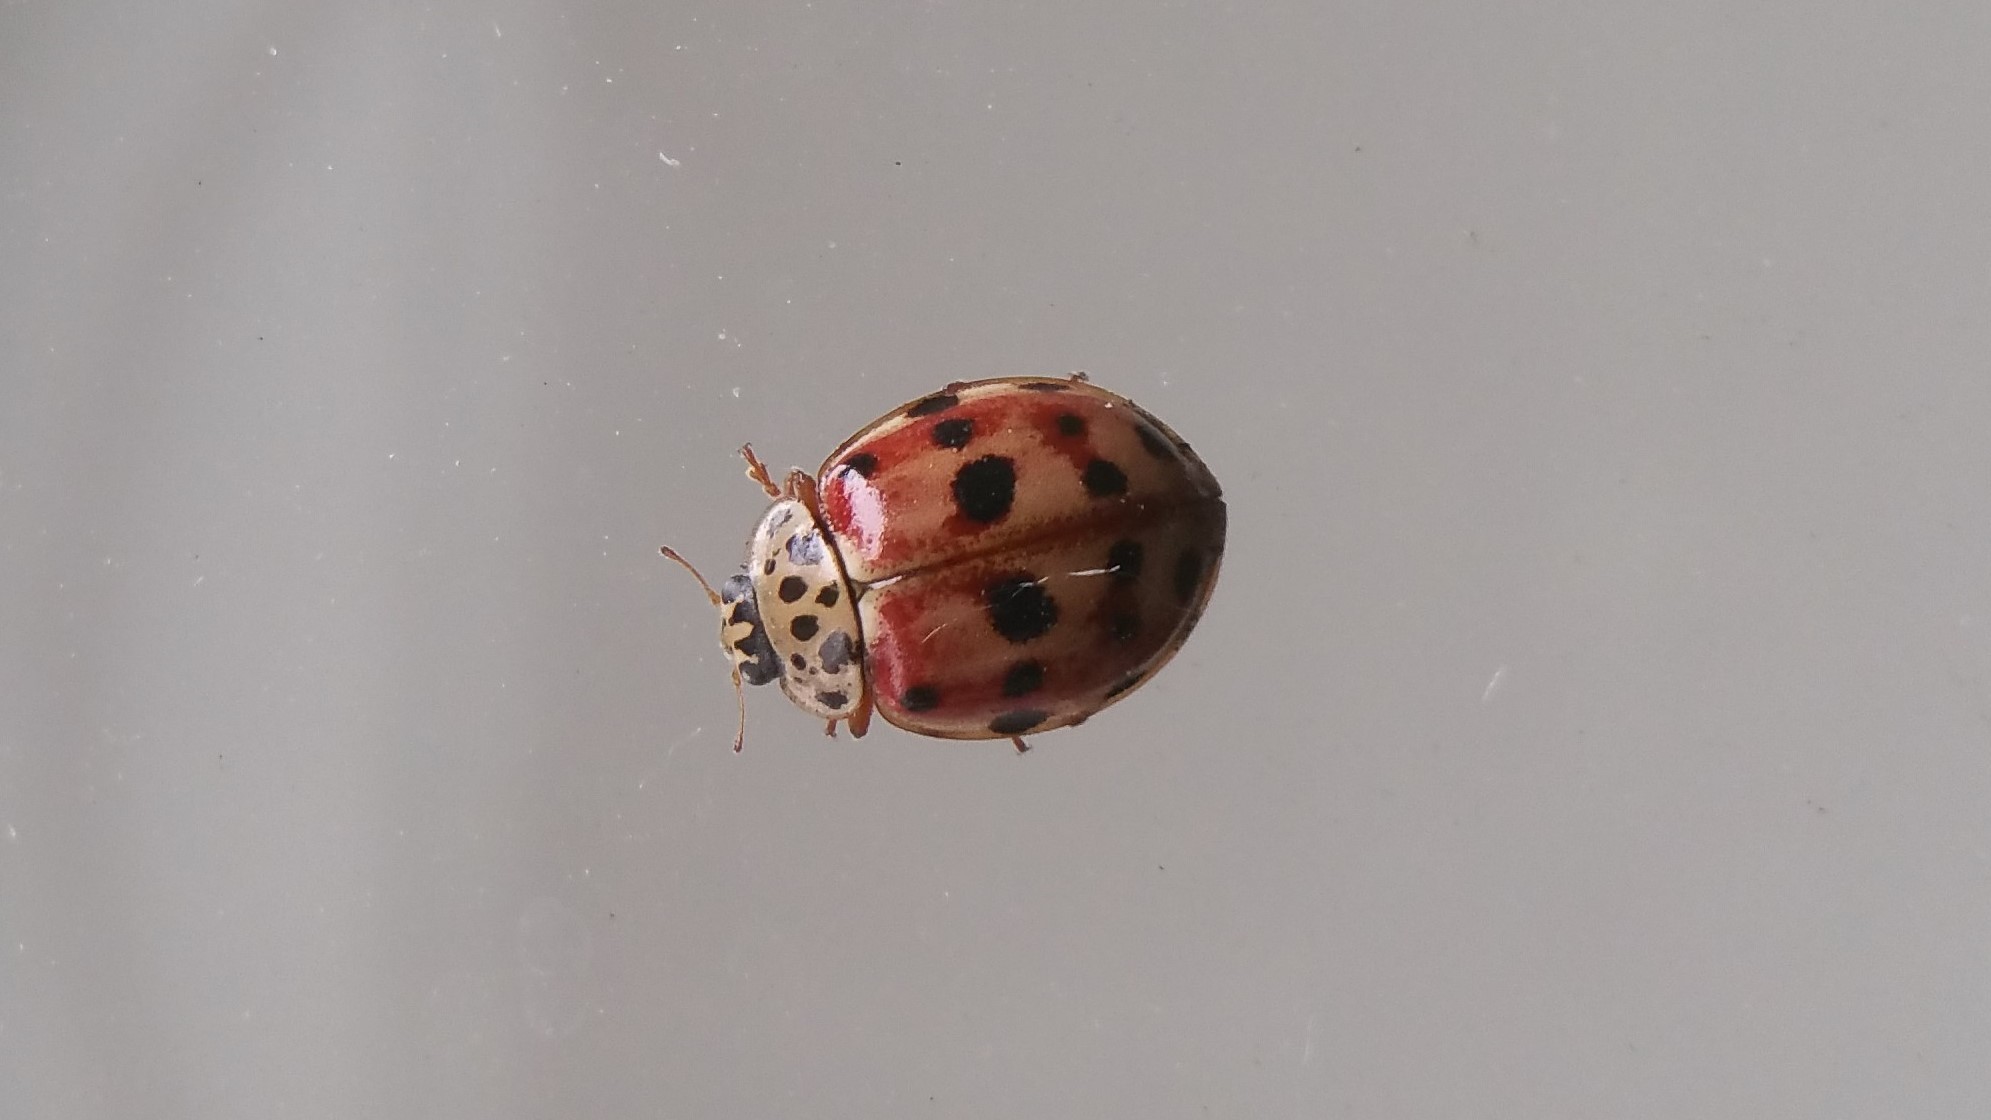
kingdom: Animalia
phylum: Arthropoda
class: Insecta
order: Coleoptera
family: Coccinellidae
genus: Harmonia
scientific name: Harmonia quadripunctata
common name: Cream-streaked ladybird
